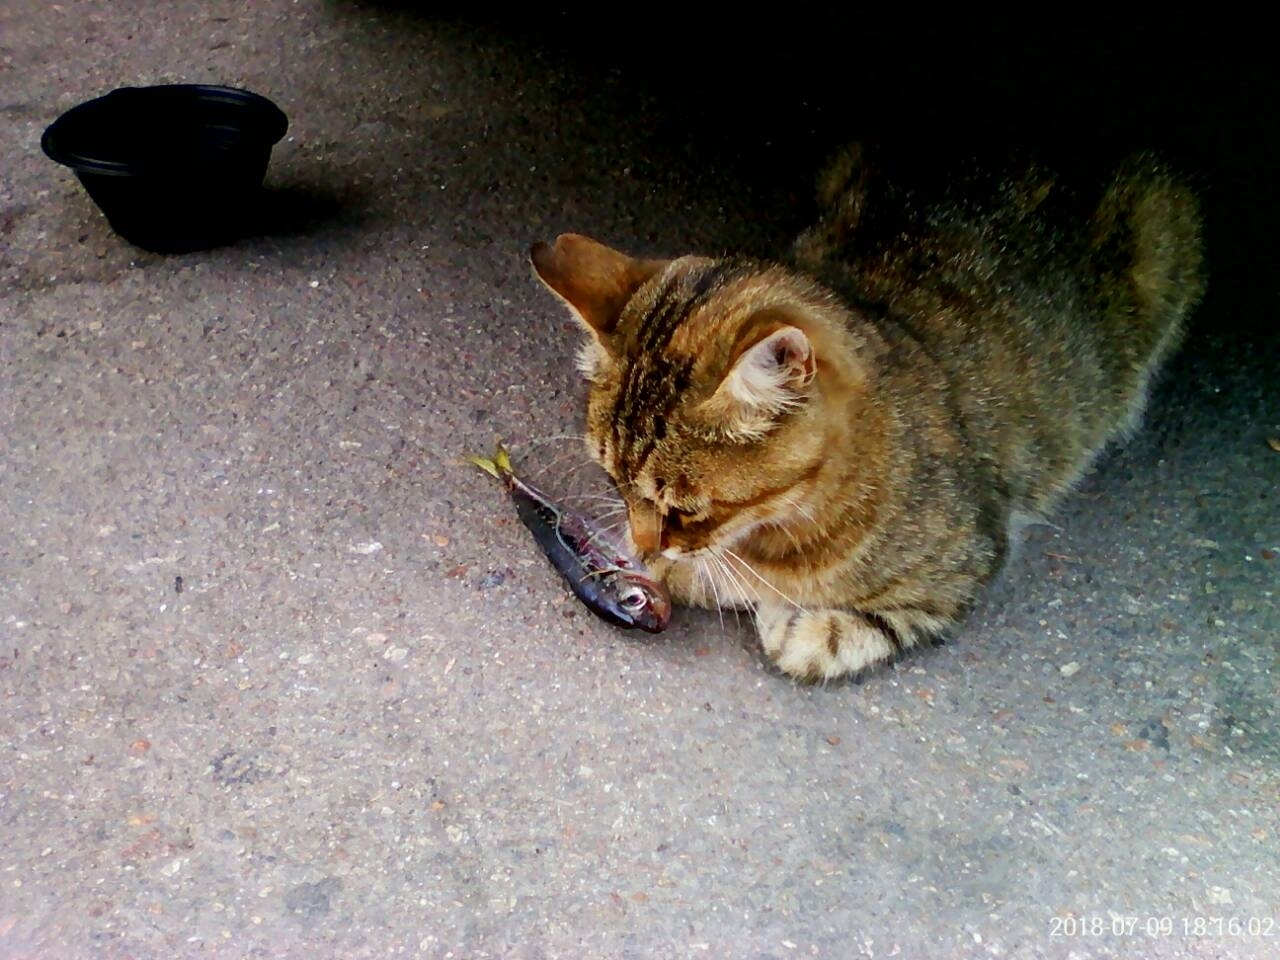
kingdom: Animalia
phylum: Chordata
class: Mammalia
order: Carnivora
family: Felidae
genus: Felis
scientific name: Felis catus
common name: Domestic cat
